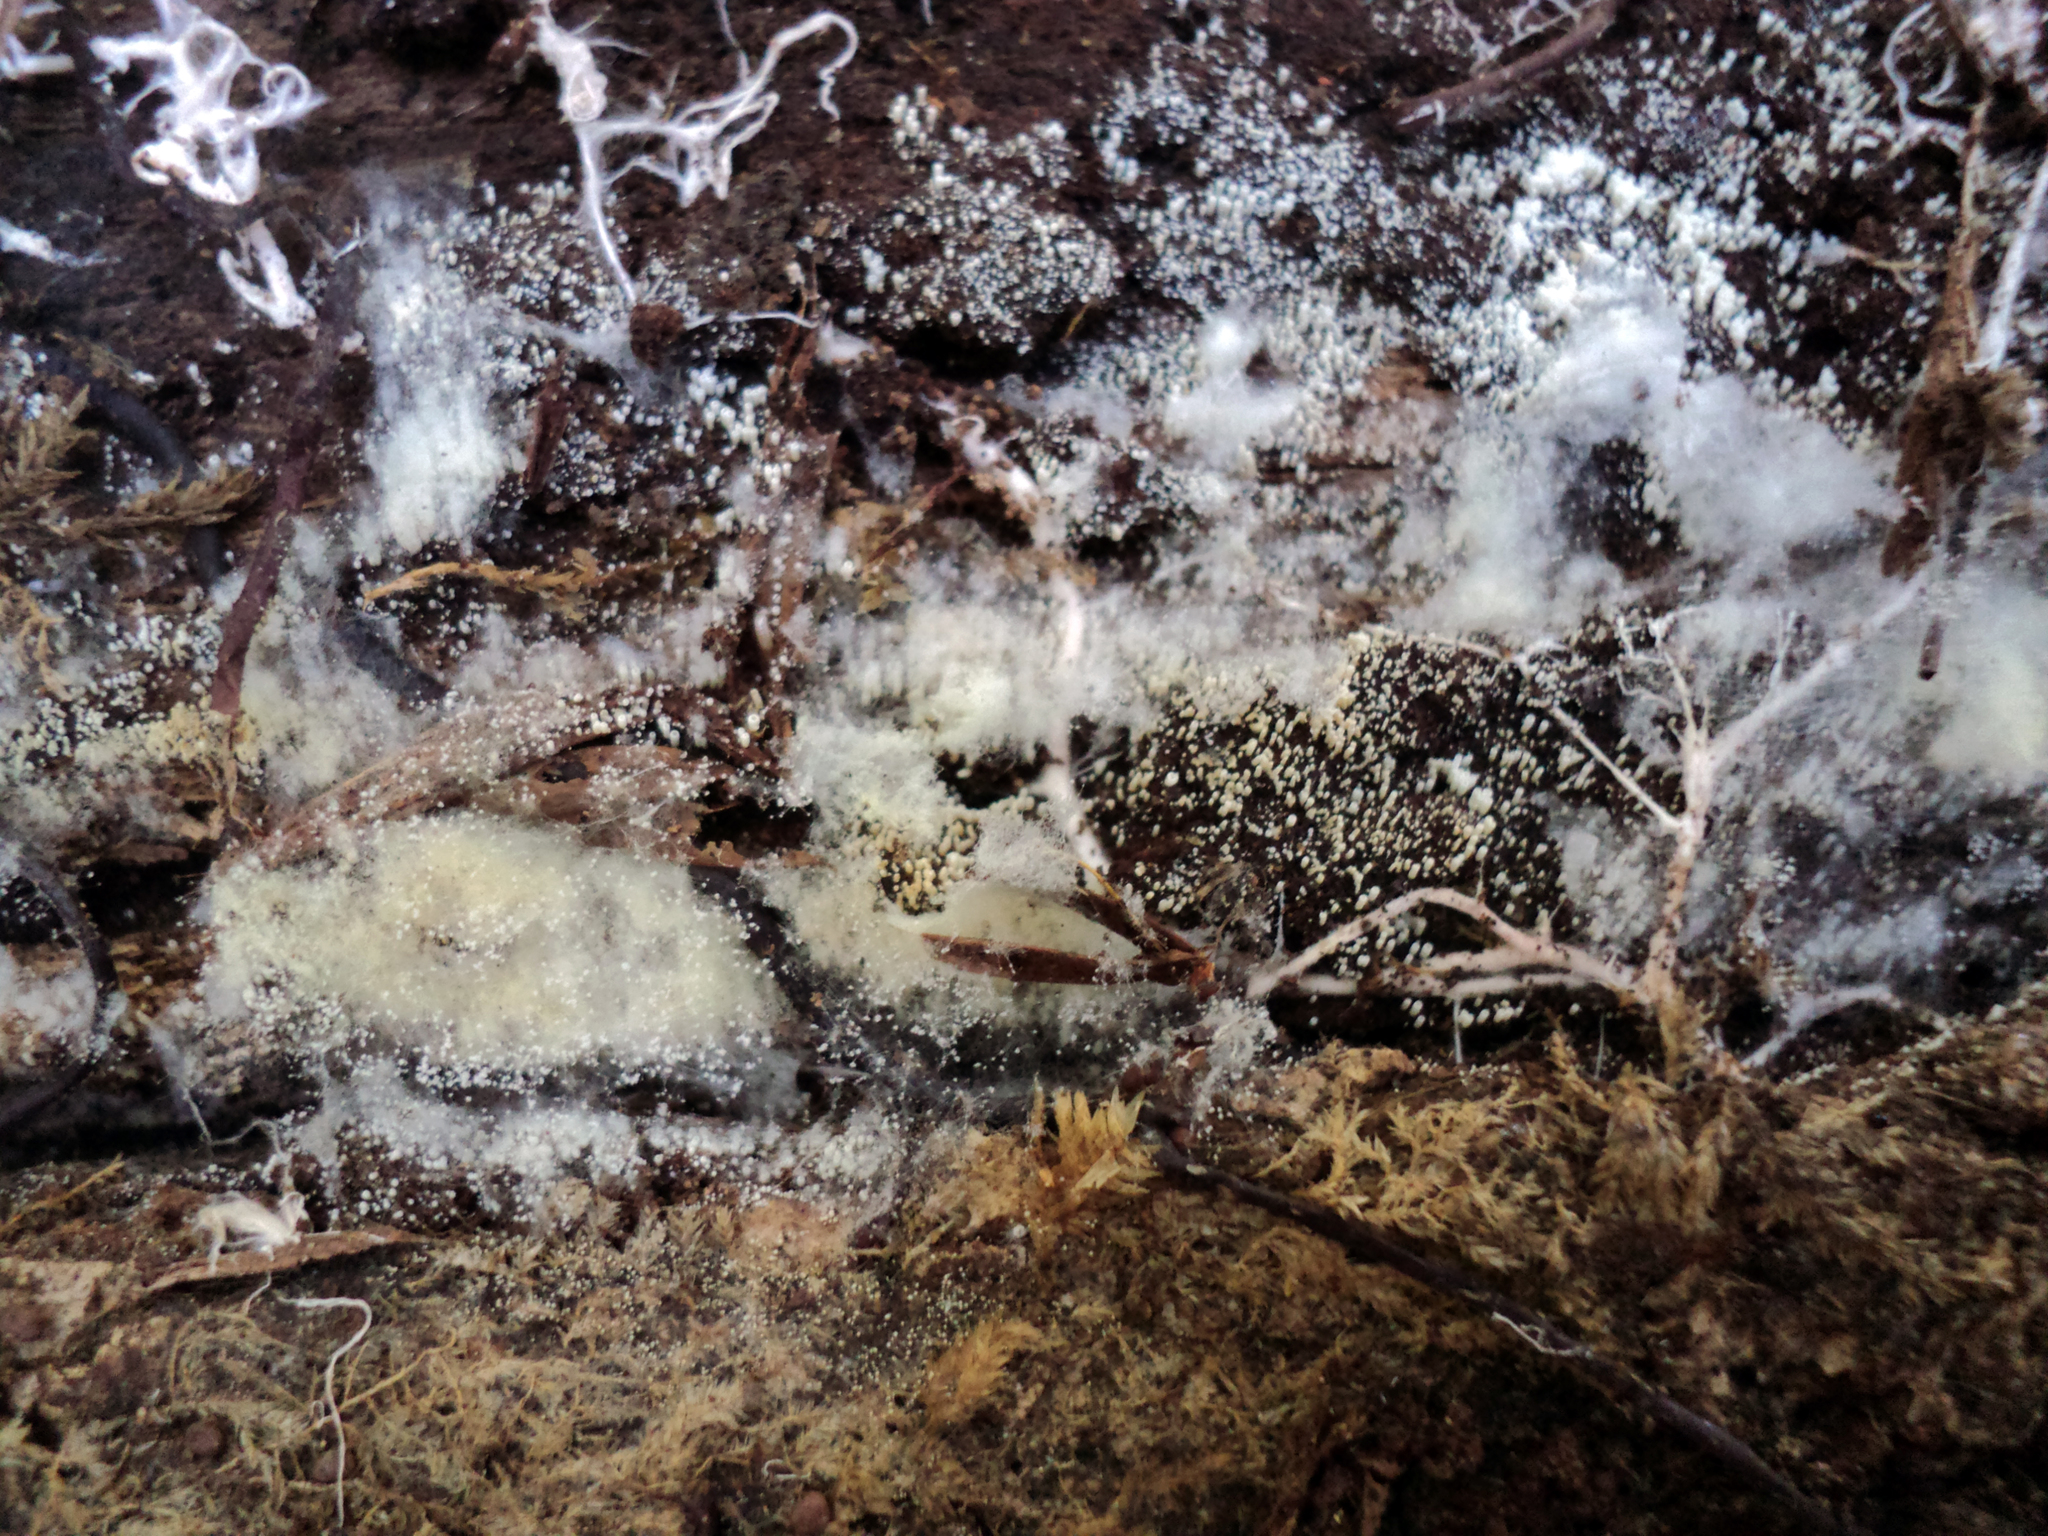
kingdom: Fungi
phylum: Basidiomycota
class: Agaricomycetes
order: Agaricales
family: Marasmiaceae
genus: Henningsomyces
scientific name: Henningsomyces candidus
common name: White tubelet
